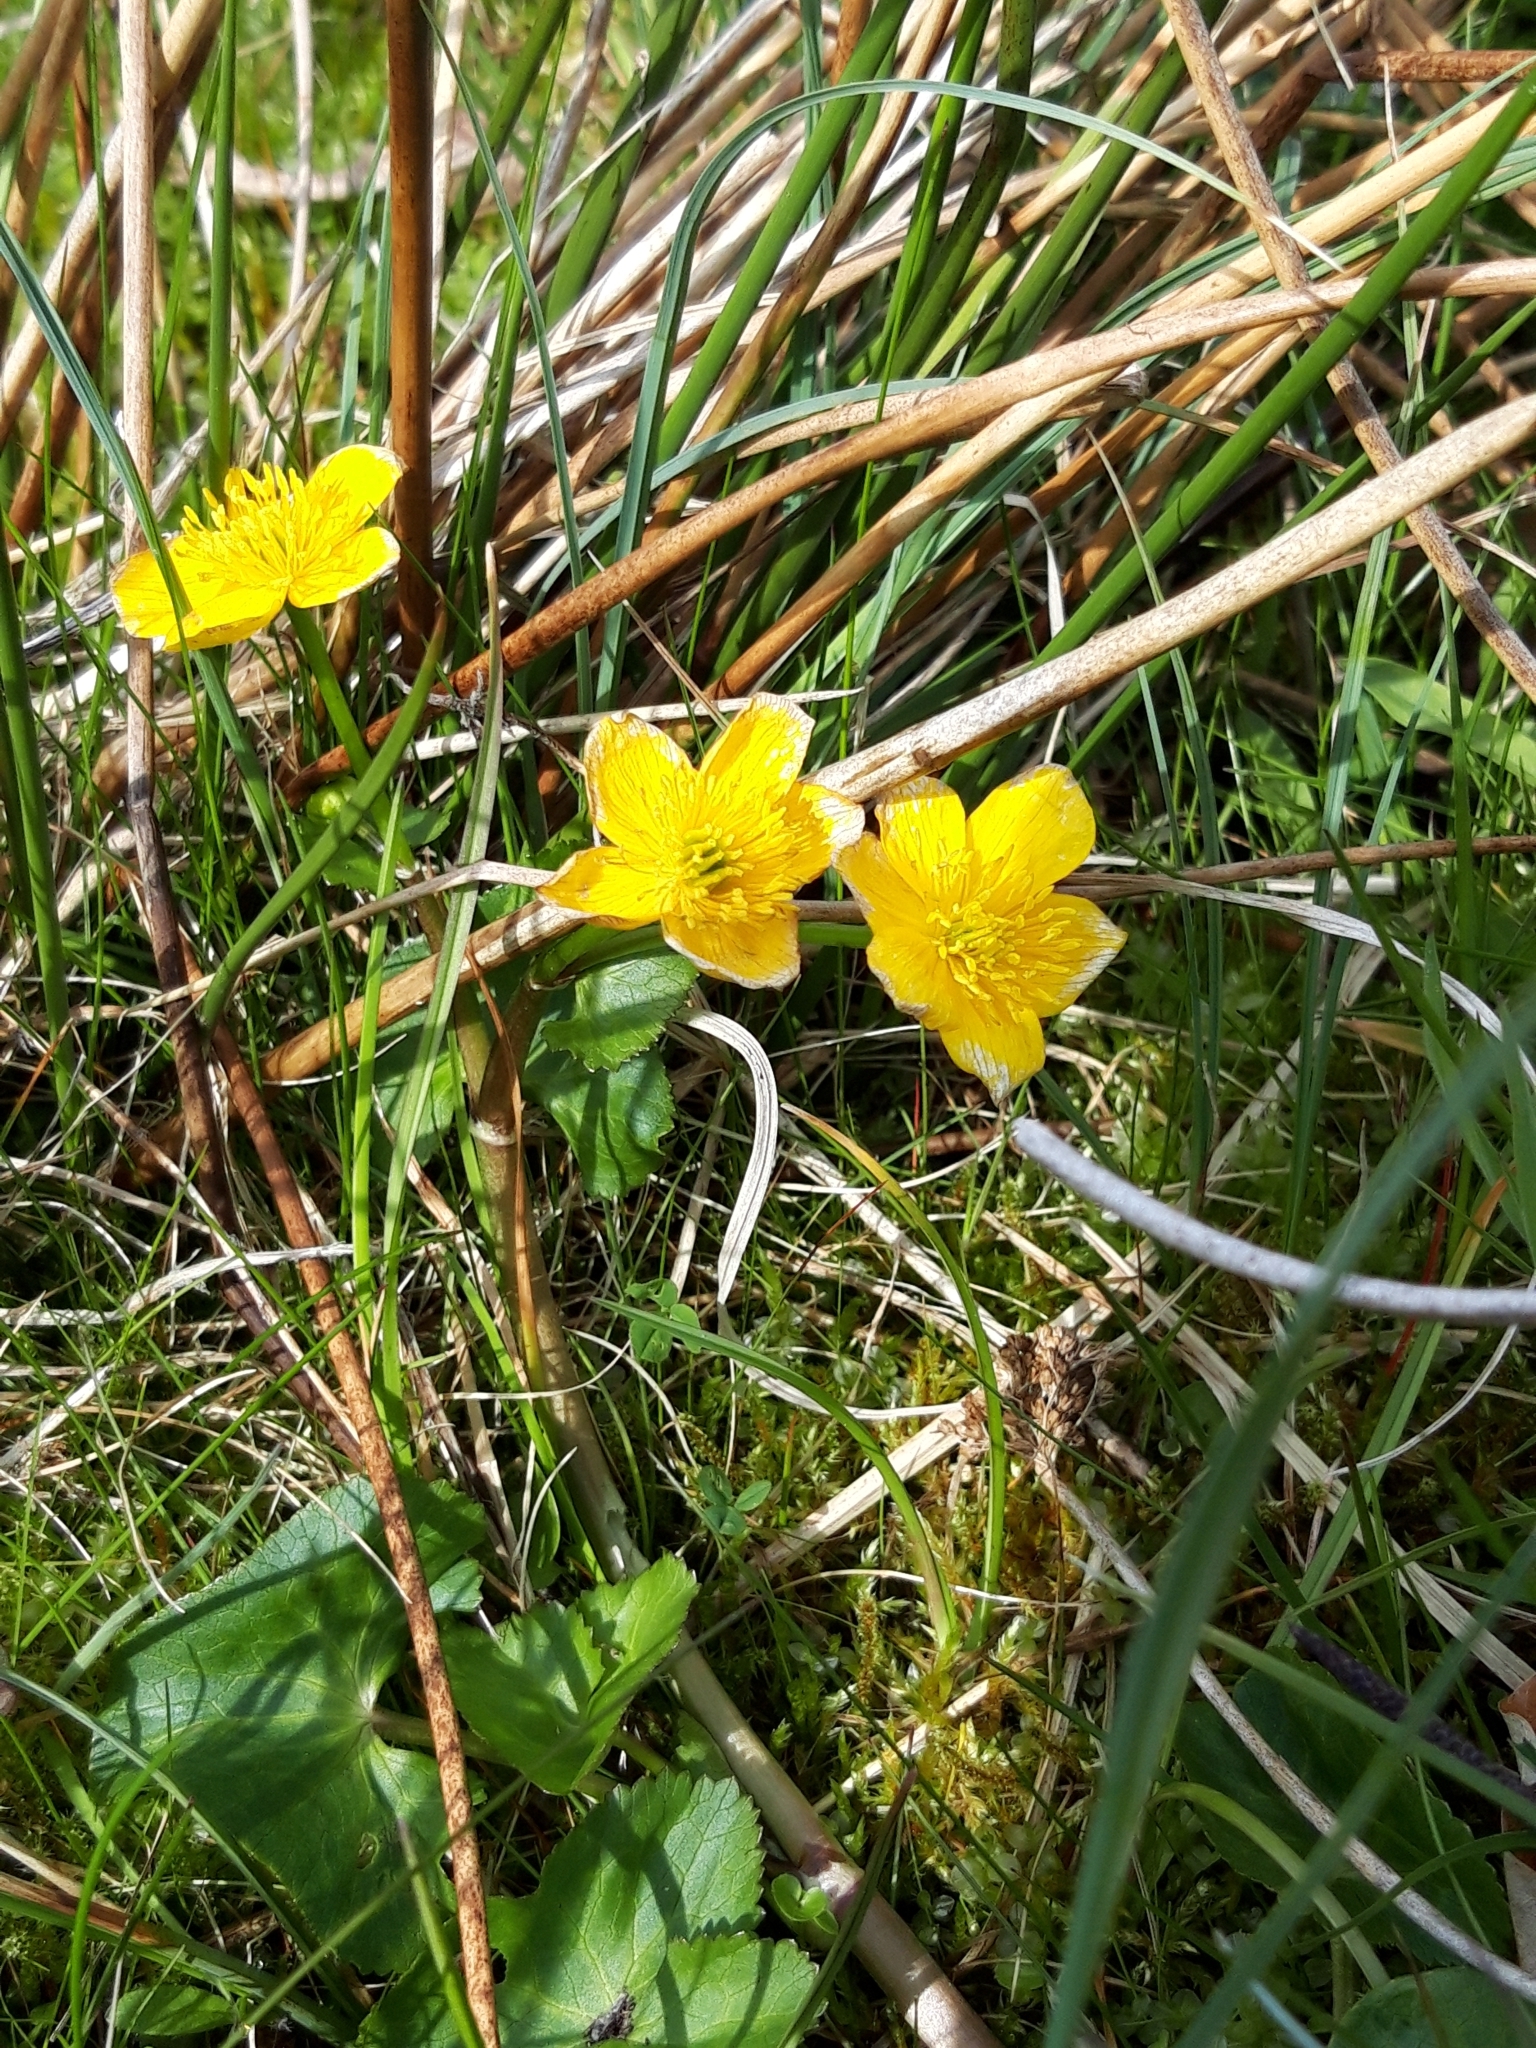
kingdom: Plantae
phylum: Tracheophyta
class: Magnoliopsida
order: Ranunculales
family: Ranunculaceae
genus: Caltha
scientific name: Caltha palustris
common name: Marsh marigold
